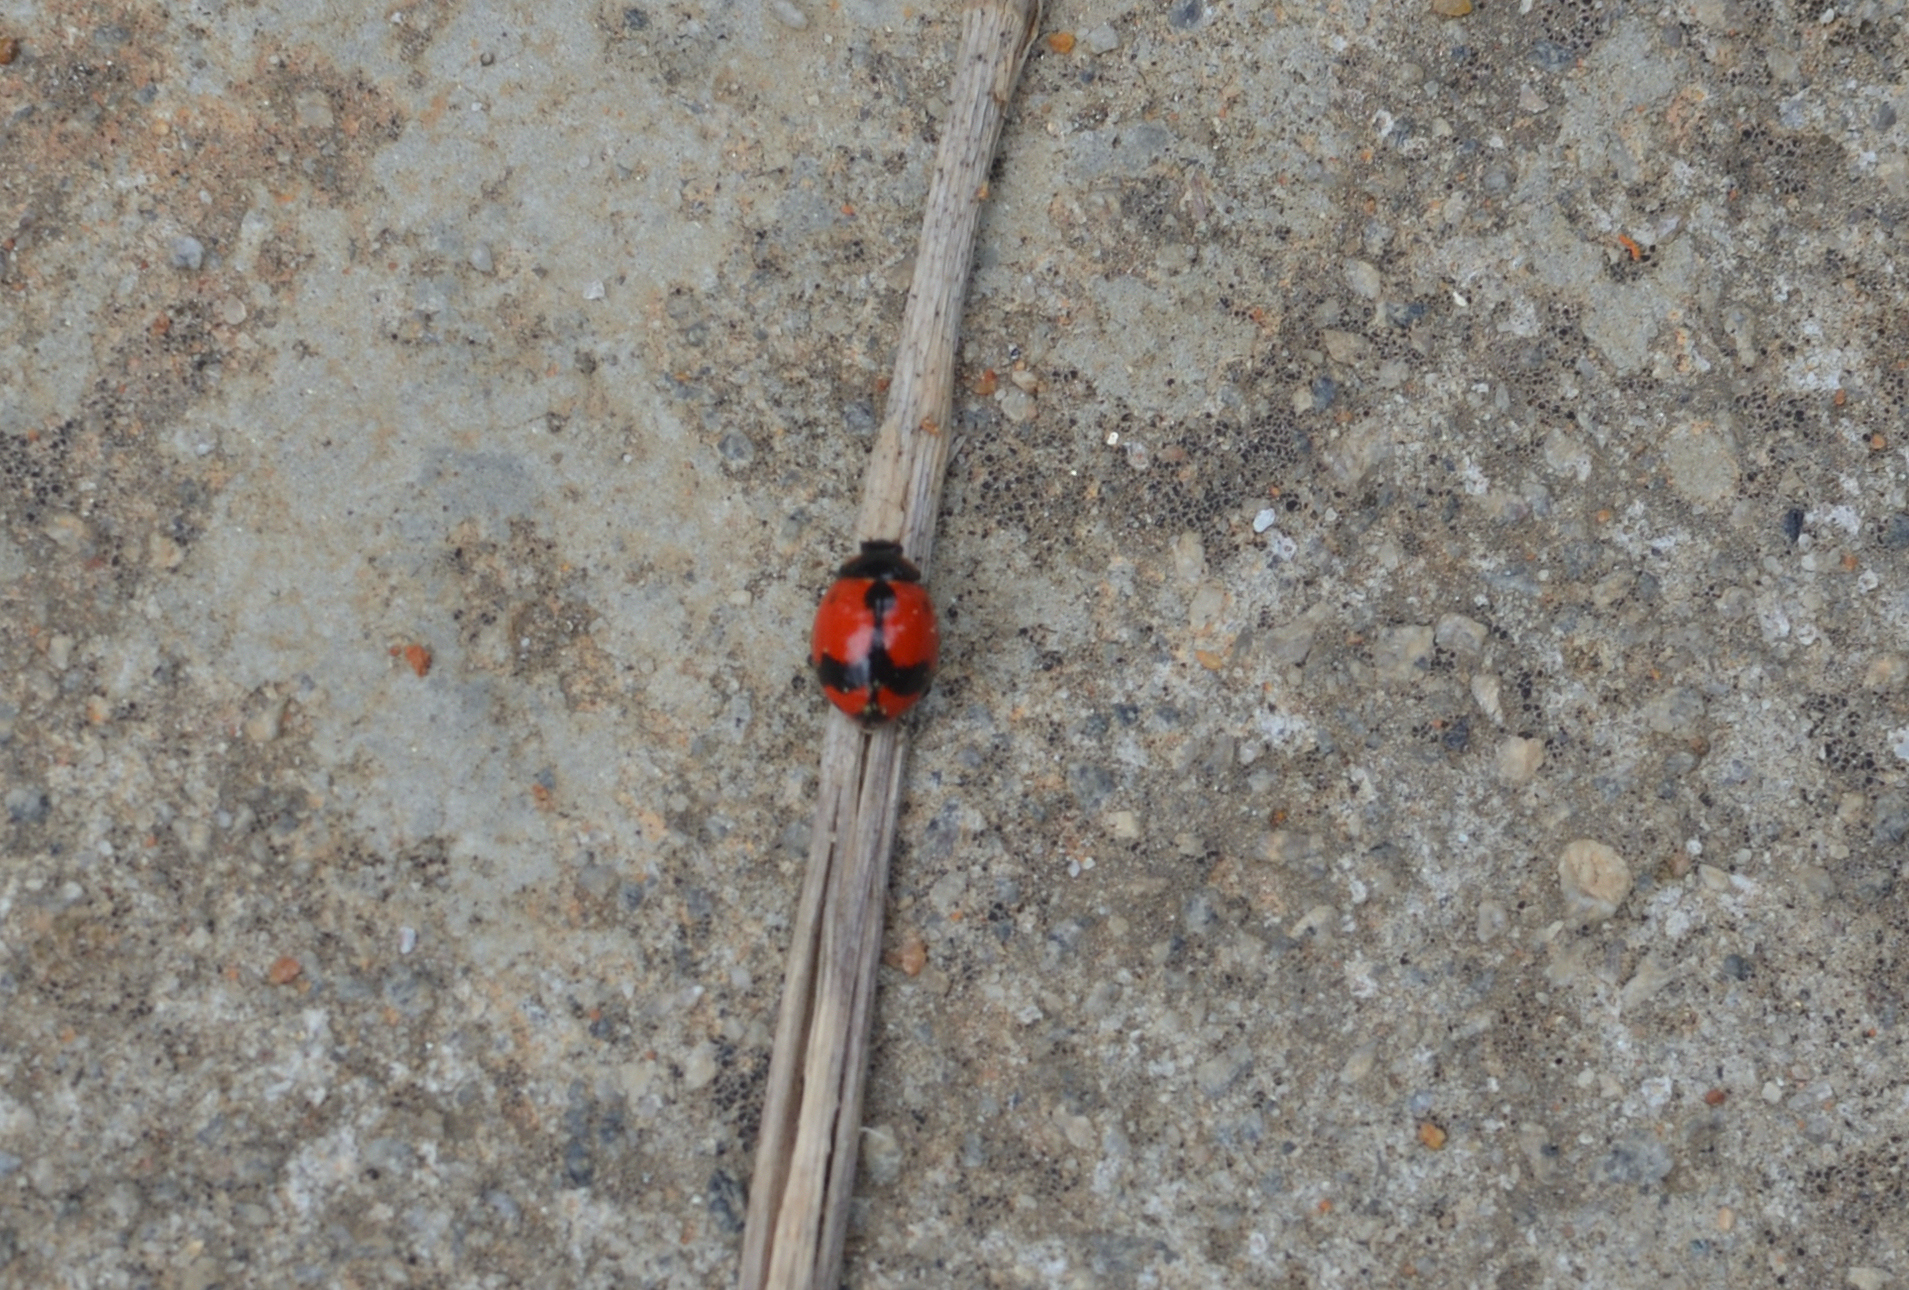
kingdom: Animalia
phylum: Arthropoda
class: Insecta
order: Coleoptera
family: Coccinellidae
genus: Coccinella
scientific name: Coccinella transversalis
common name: Transverse lady beetle
